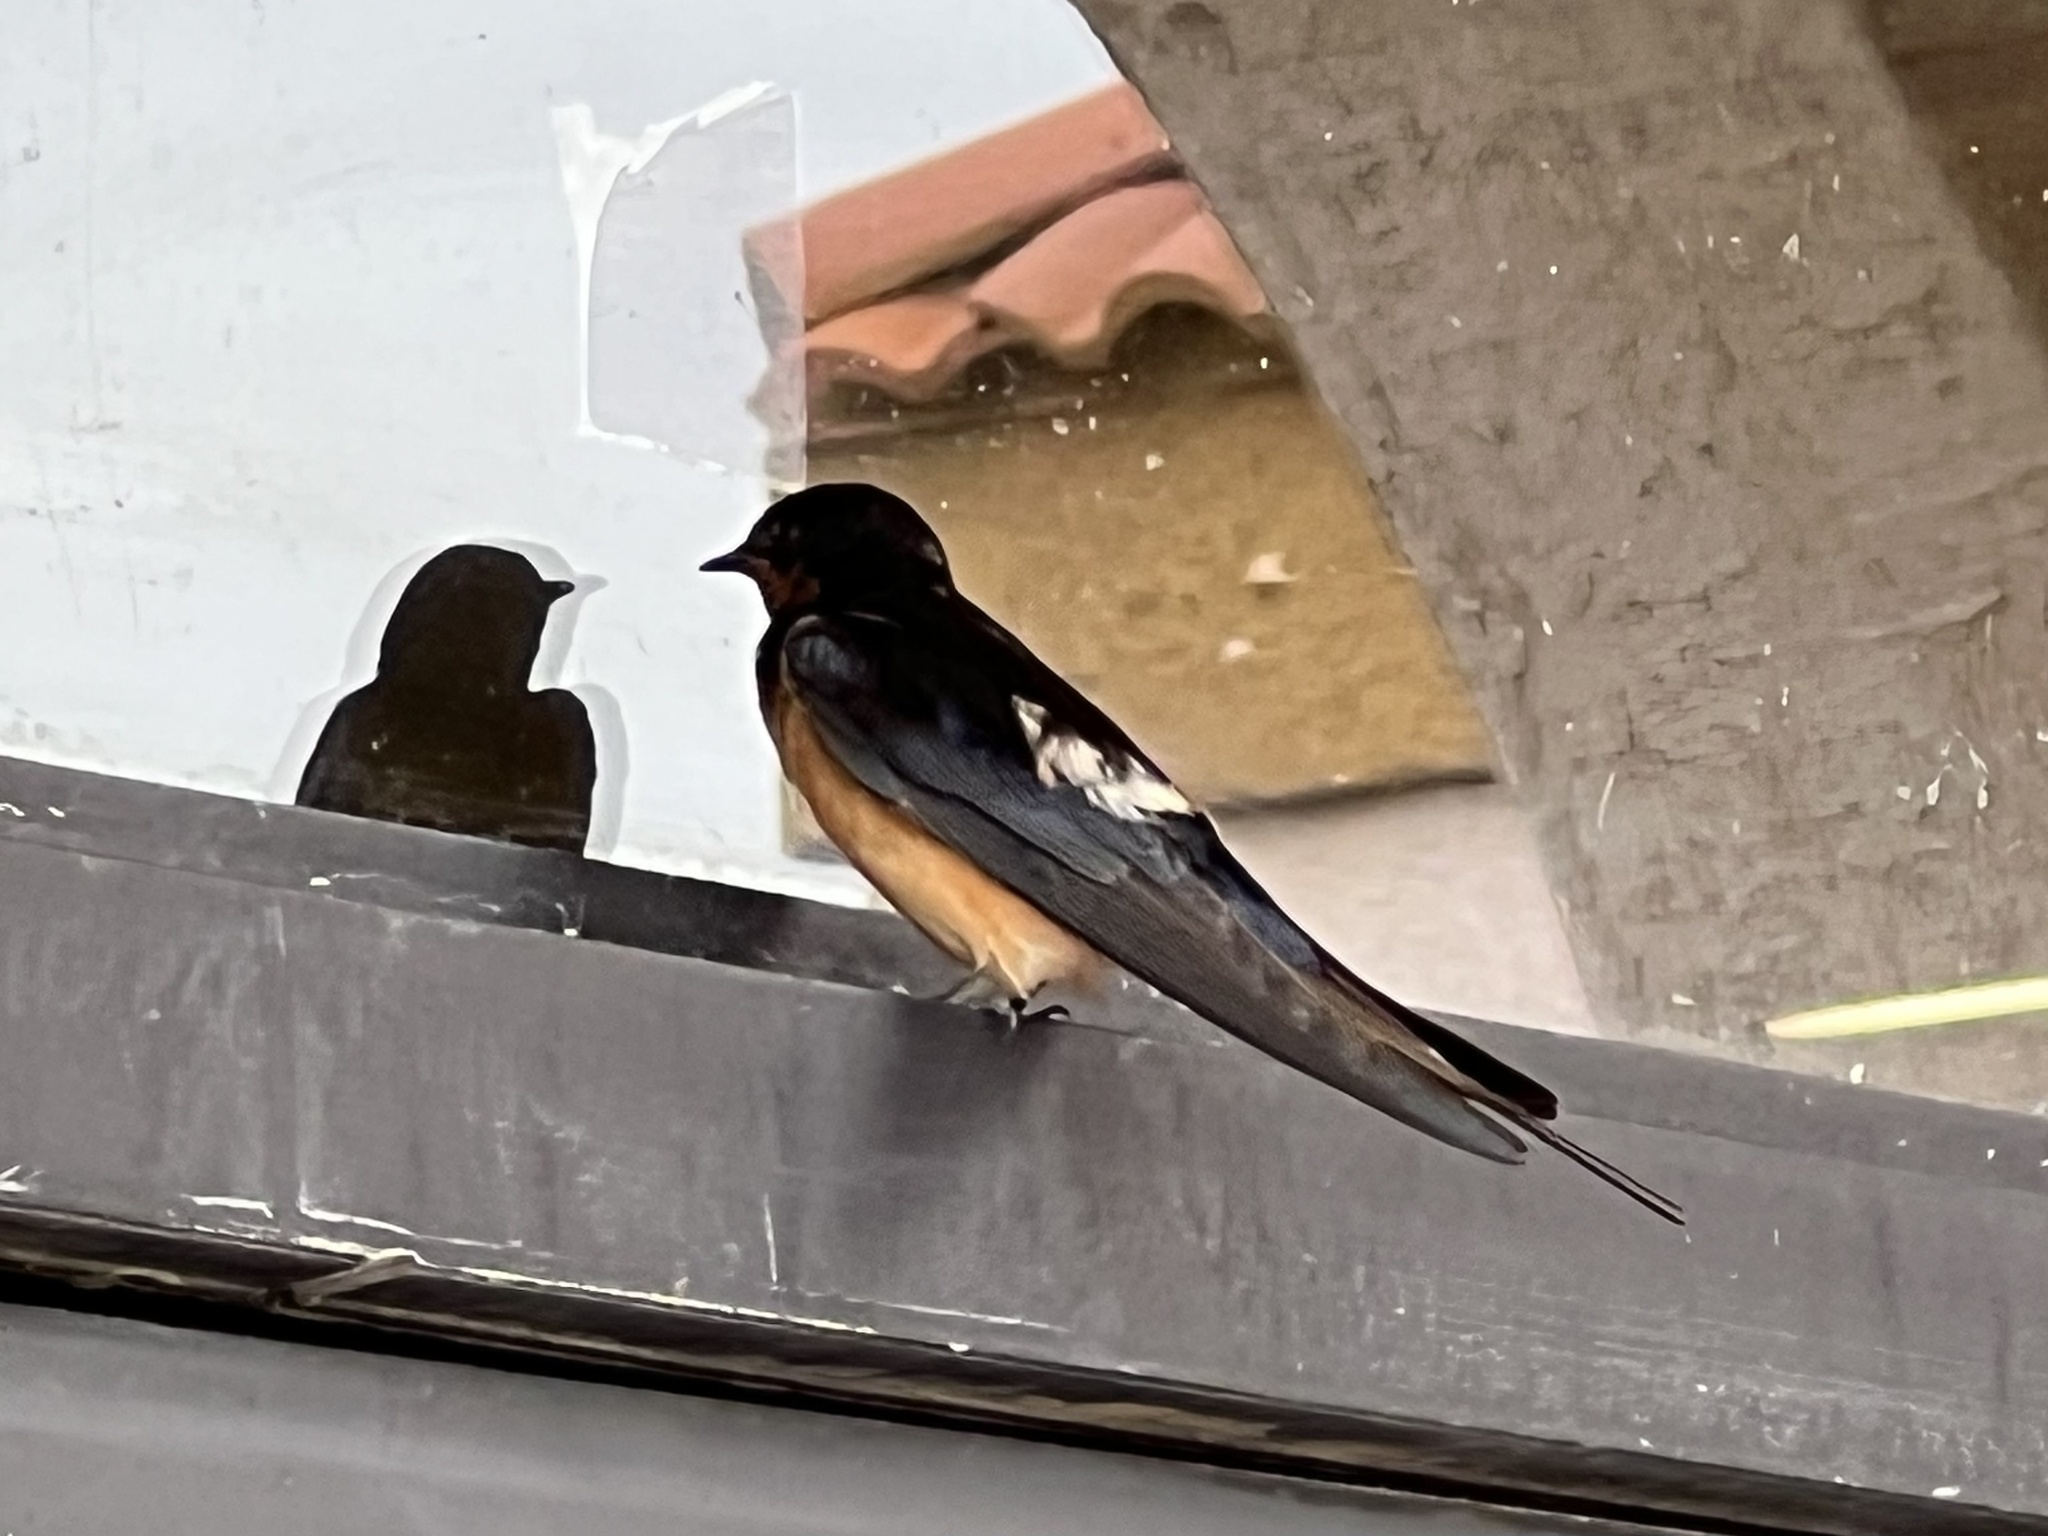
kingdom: Animalia
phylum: Chordata
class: Aves
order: Passeriformes
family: Hirundinidae
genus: Hirundo
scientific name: Hirundo rustica
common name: Barn swallow
